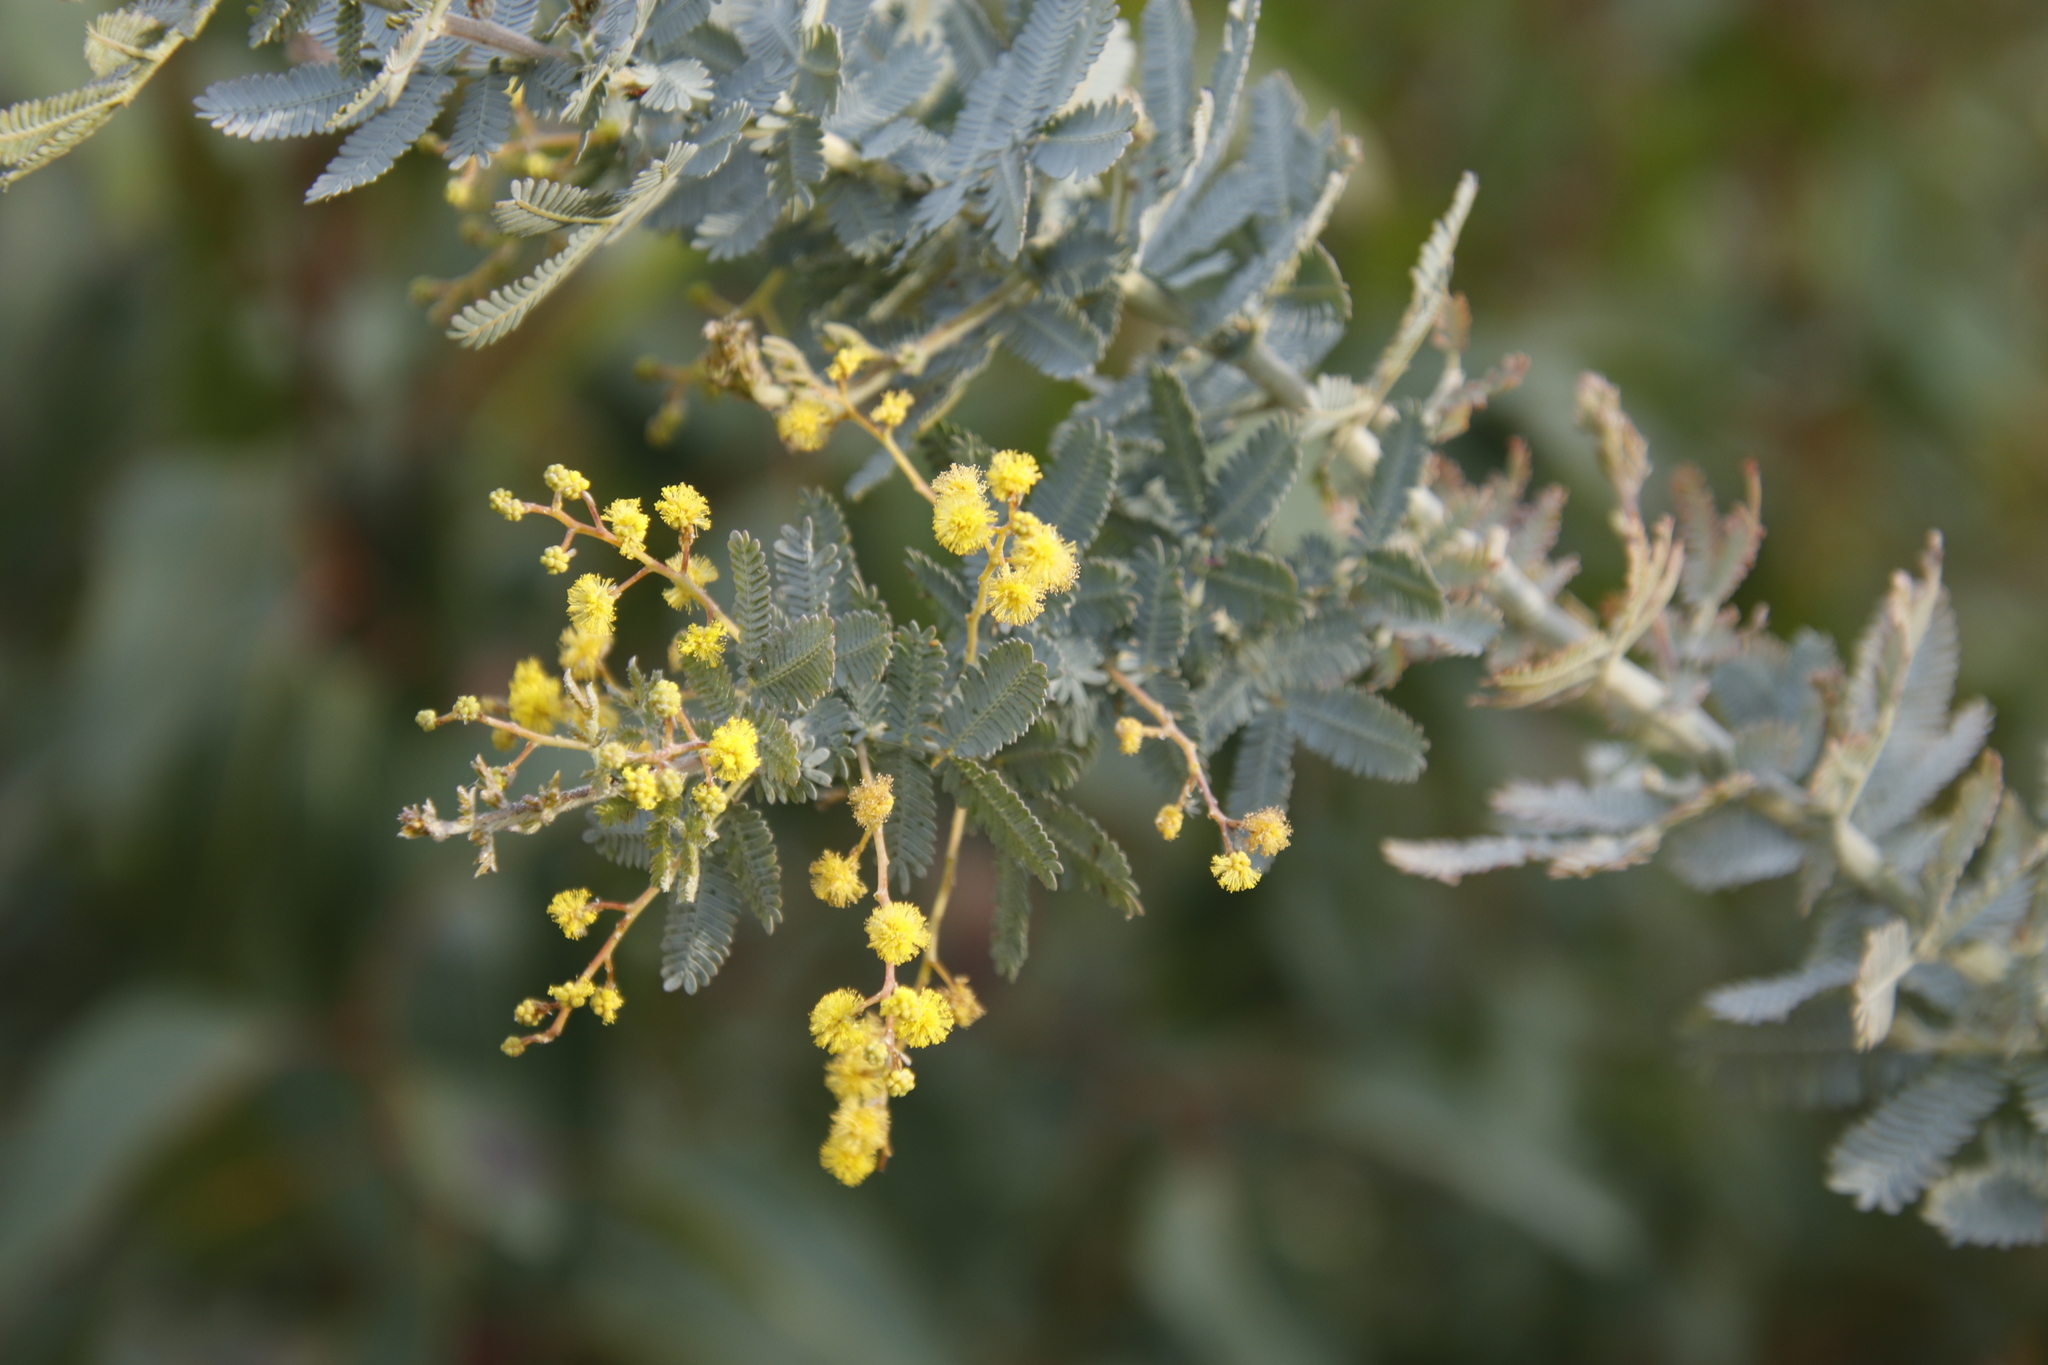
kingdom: Plantae
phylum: Tracheophyta
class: Magnoliopsida
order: Fabales
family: Fabaceae
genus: Acacia
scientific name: Acacia baileyana
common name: Cootamundra wattle
